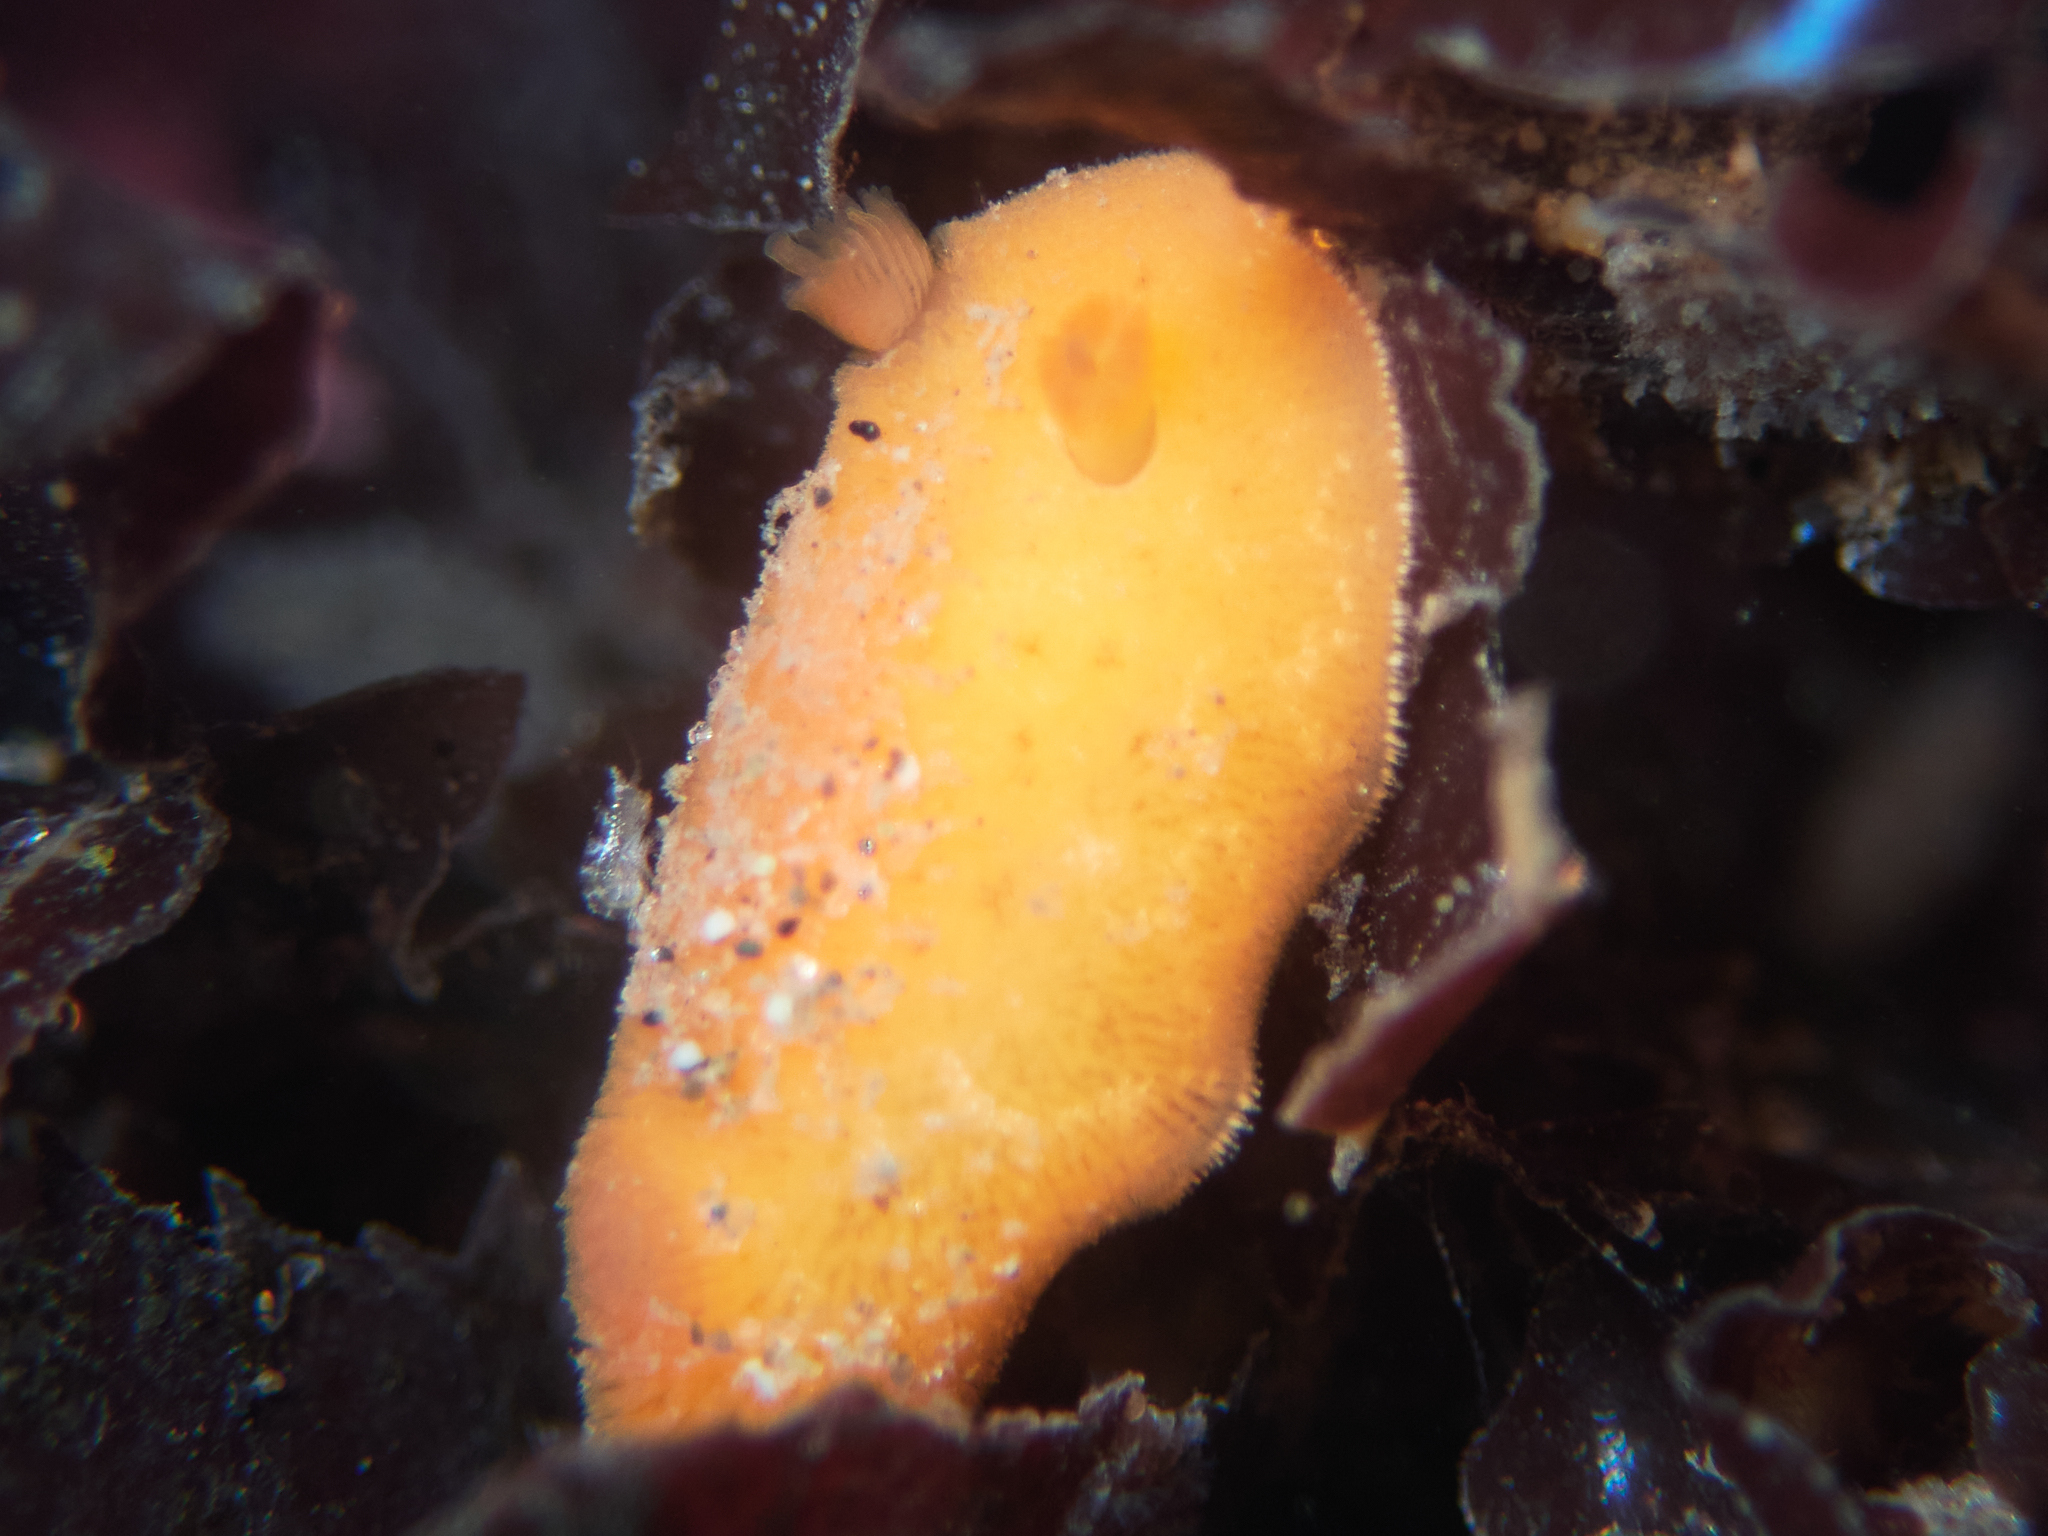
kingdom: Animalia
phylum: Mollusca
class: Gastropoda
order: Nudibranchia
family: Discodorididae
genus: Rostanga
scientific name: Rostanga pulchra
